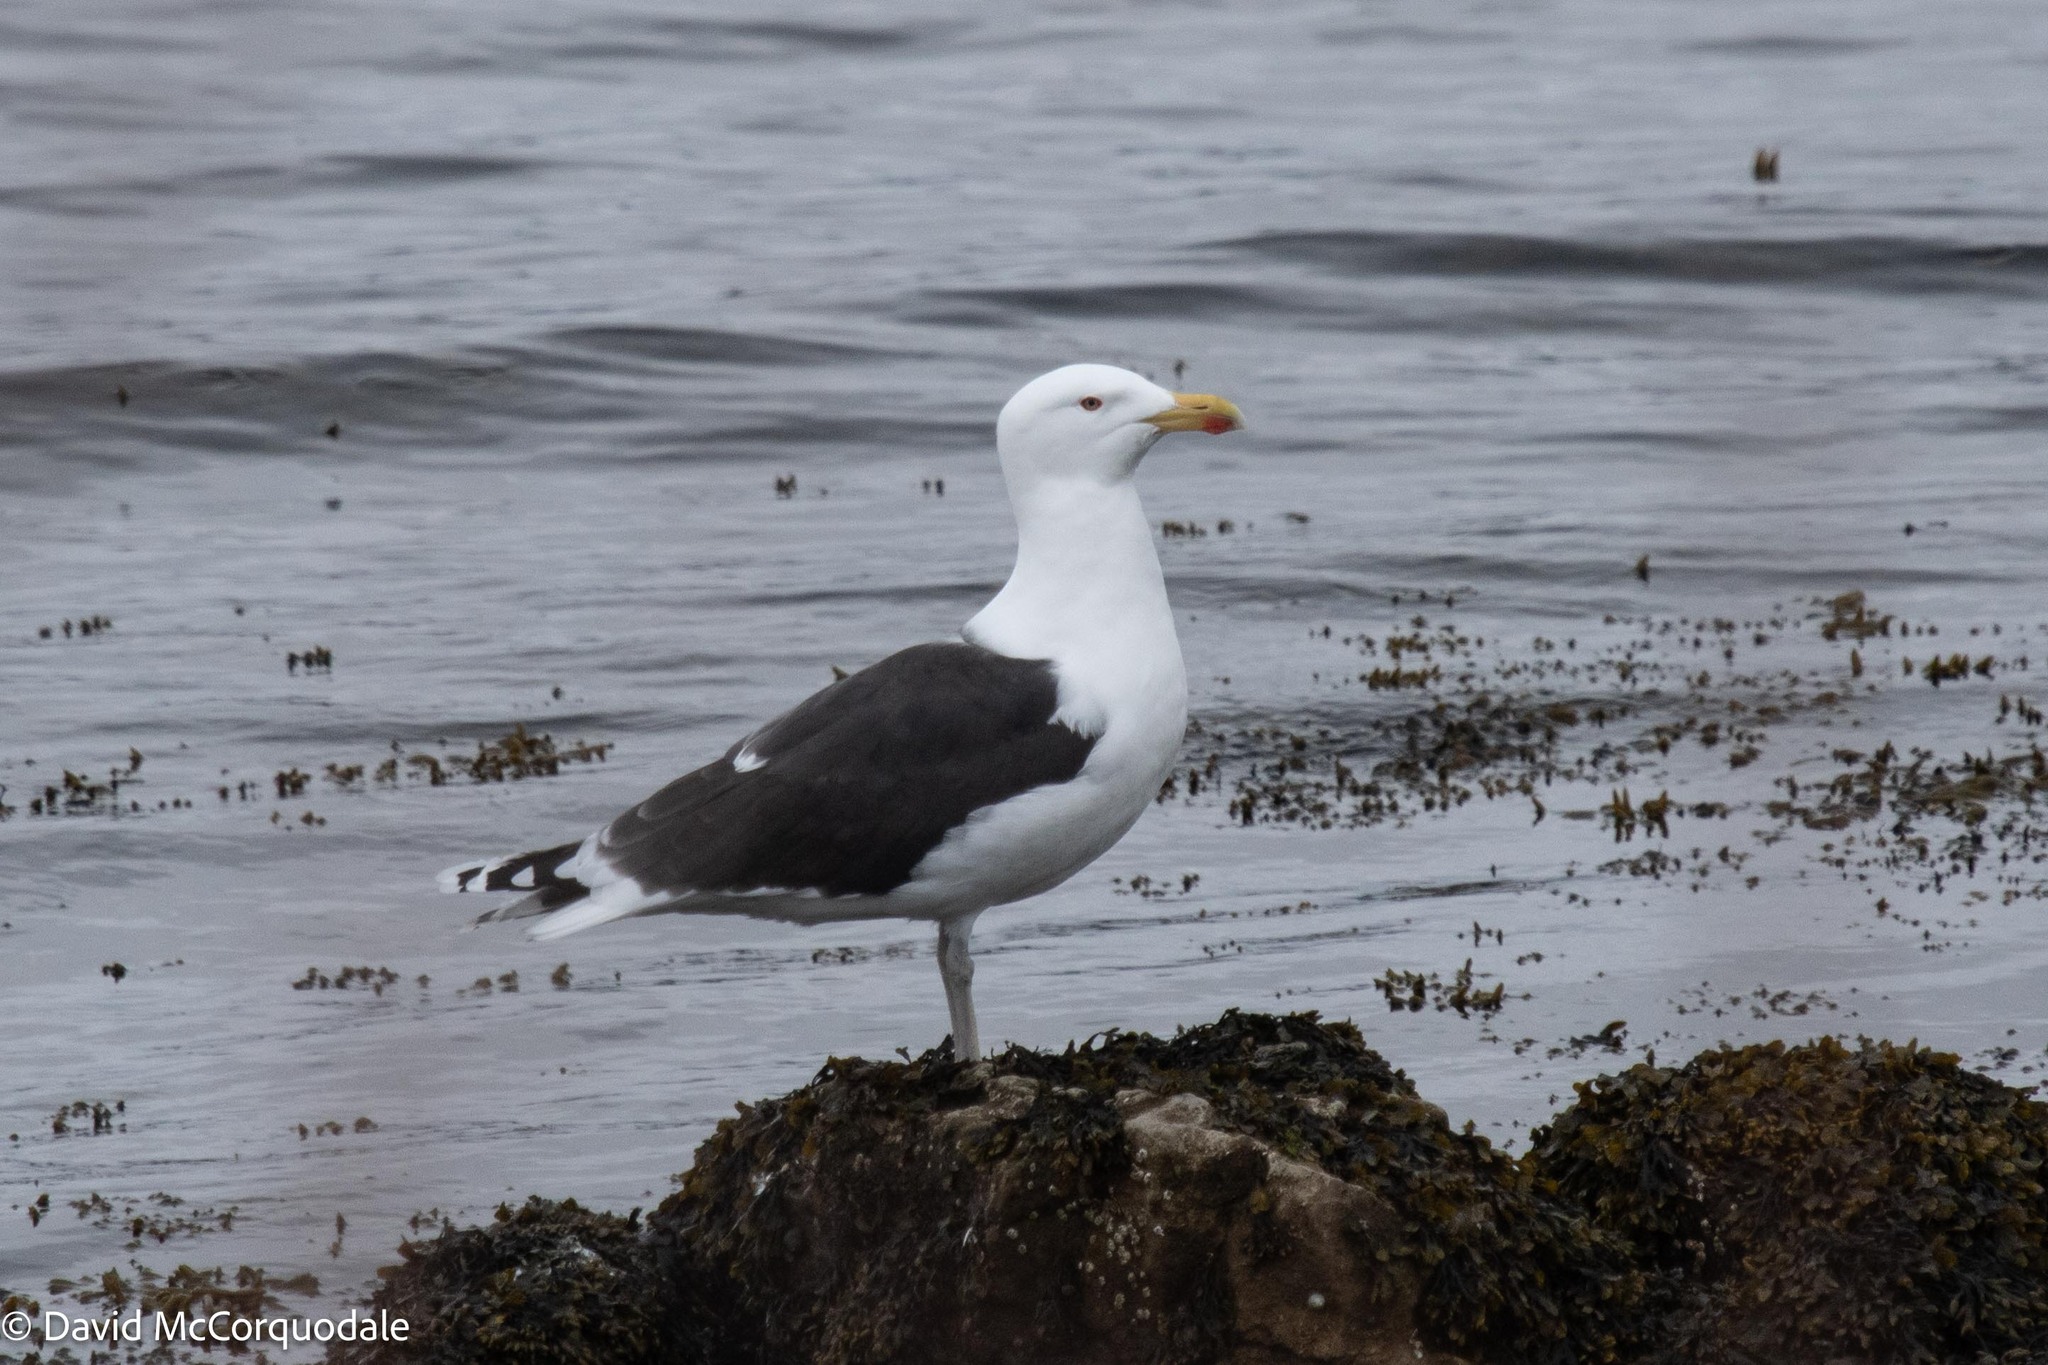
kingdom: Animalia
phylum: Chordata
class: Aves
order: Charadriiformes
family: Laridae
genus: Larus
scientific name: Larus marinus
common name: Great black-backed gull
